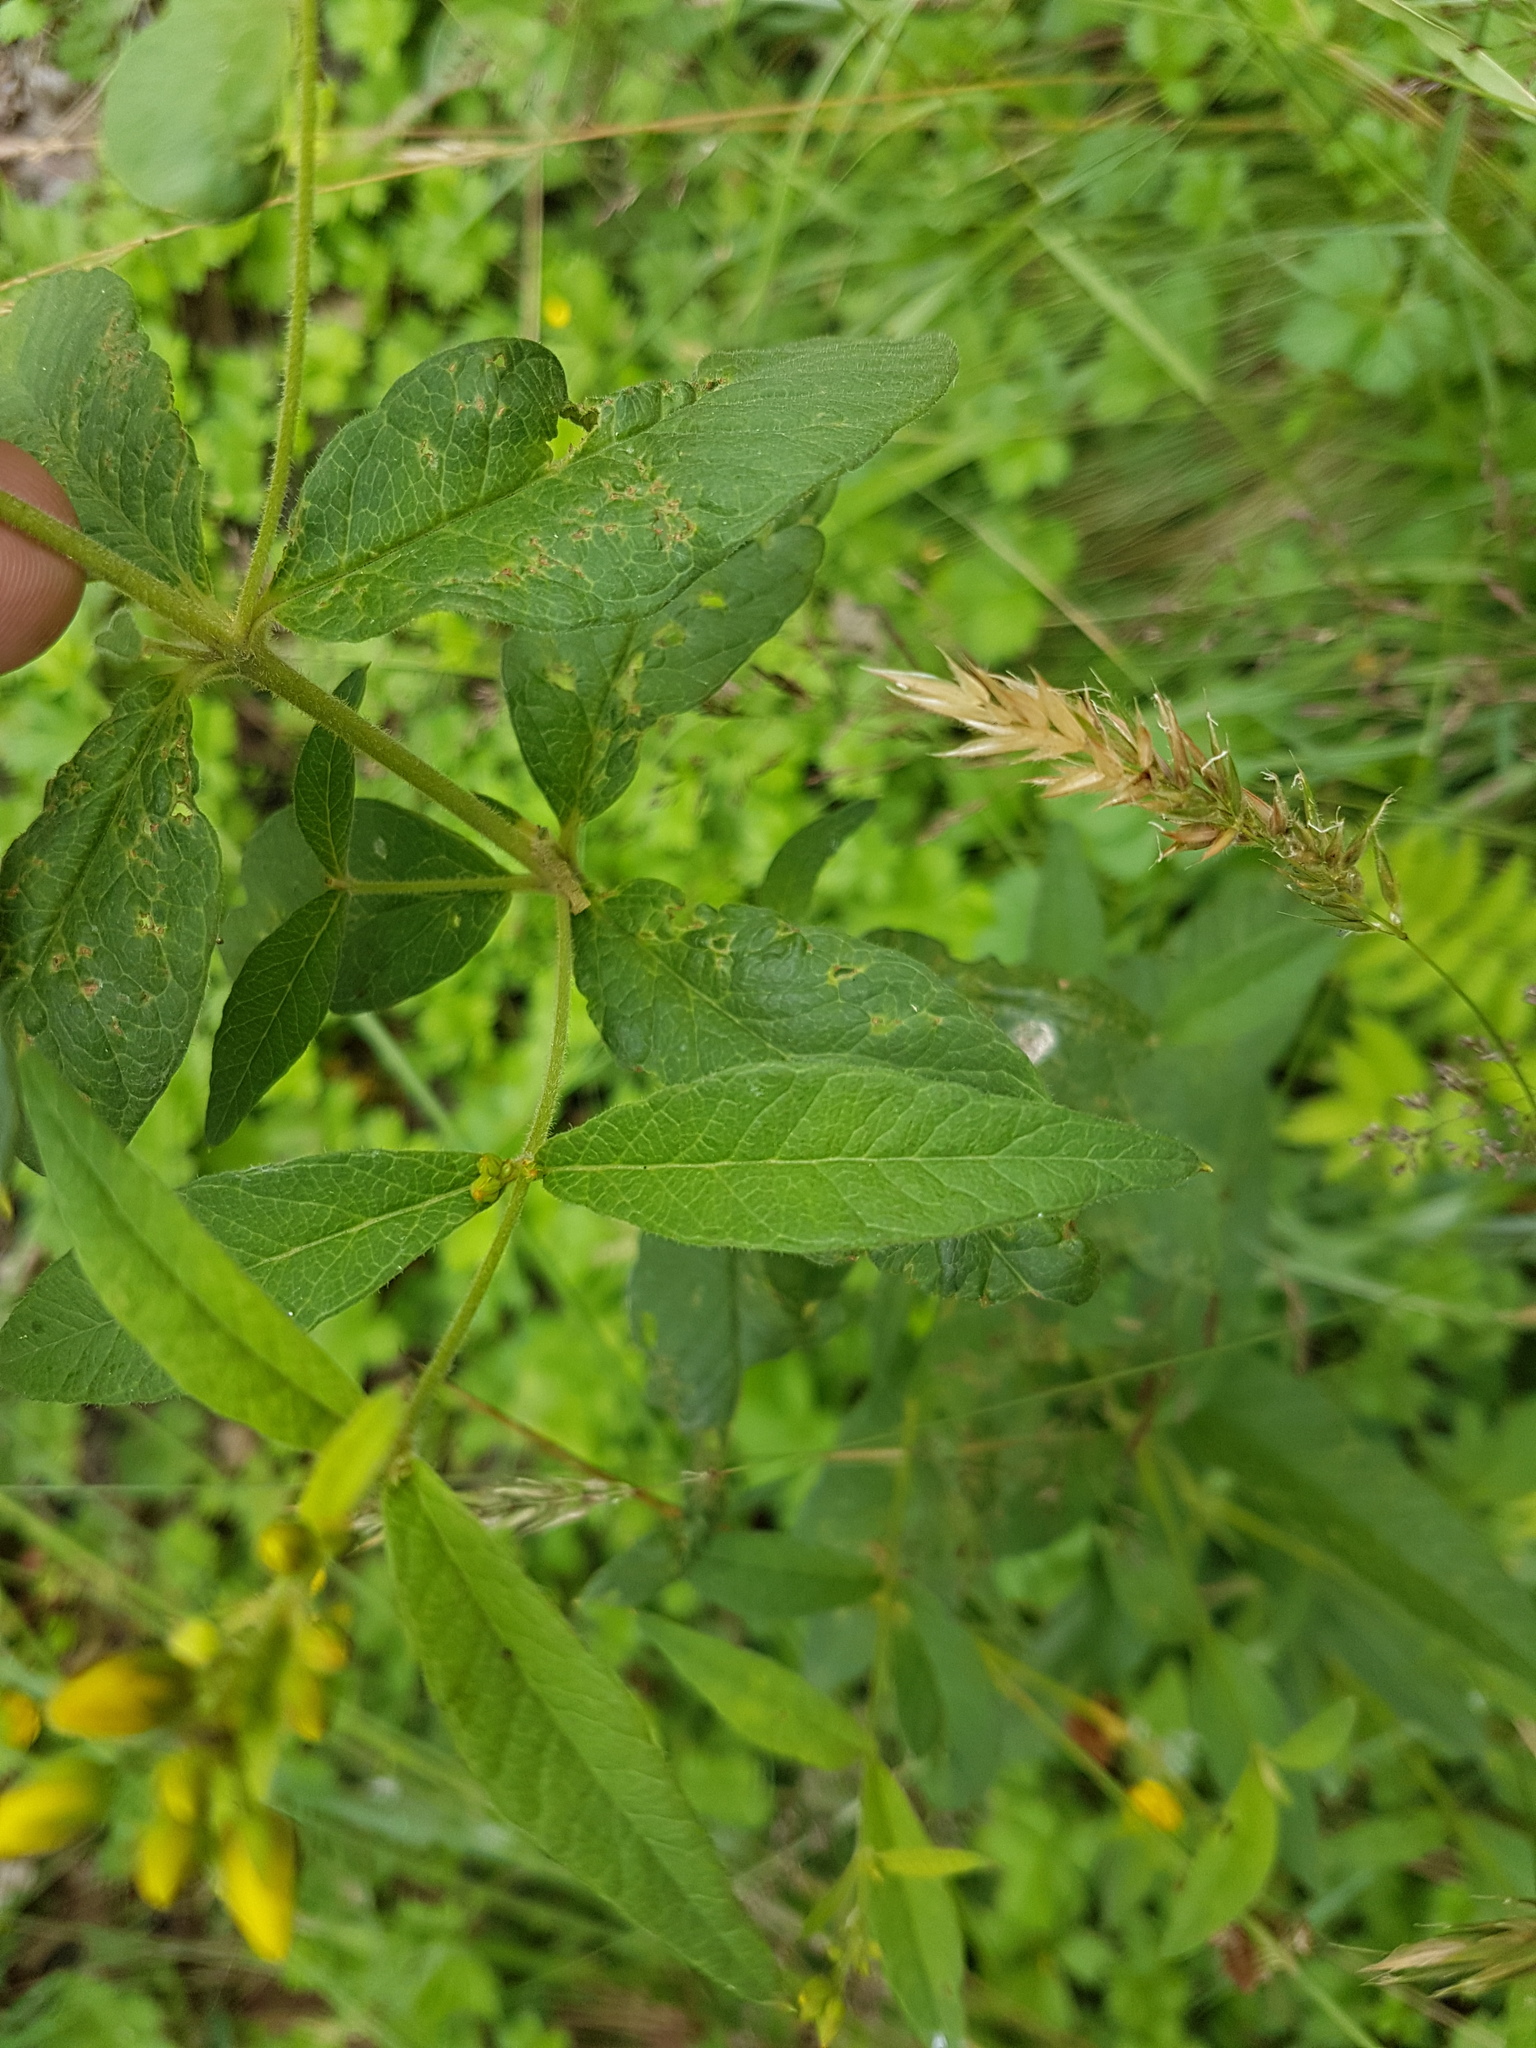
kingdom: Plantae
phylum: Tracheophyta
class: Magnoliopsida
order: Ericales
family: Primulaceae
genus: Lysimachia
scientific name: Lysimachia vulgaris
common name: Yellow loosestrife
